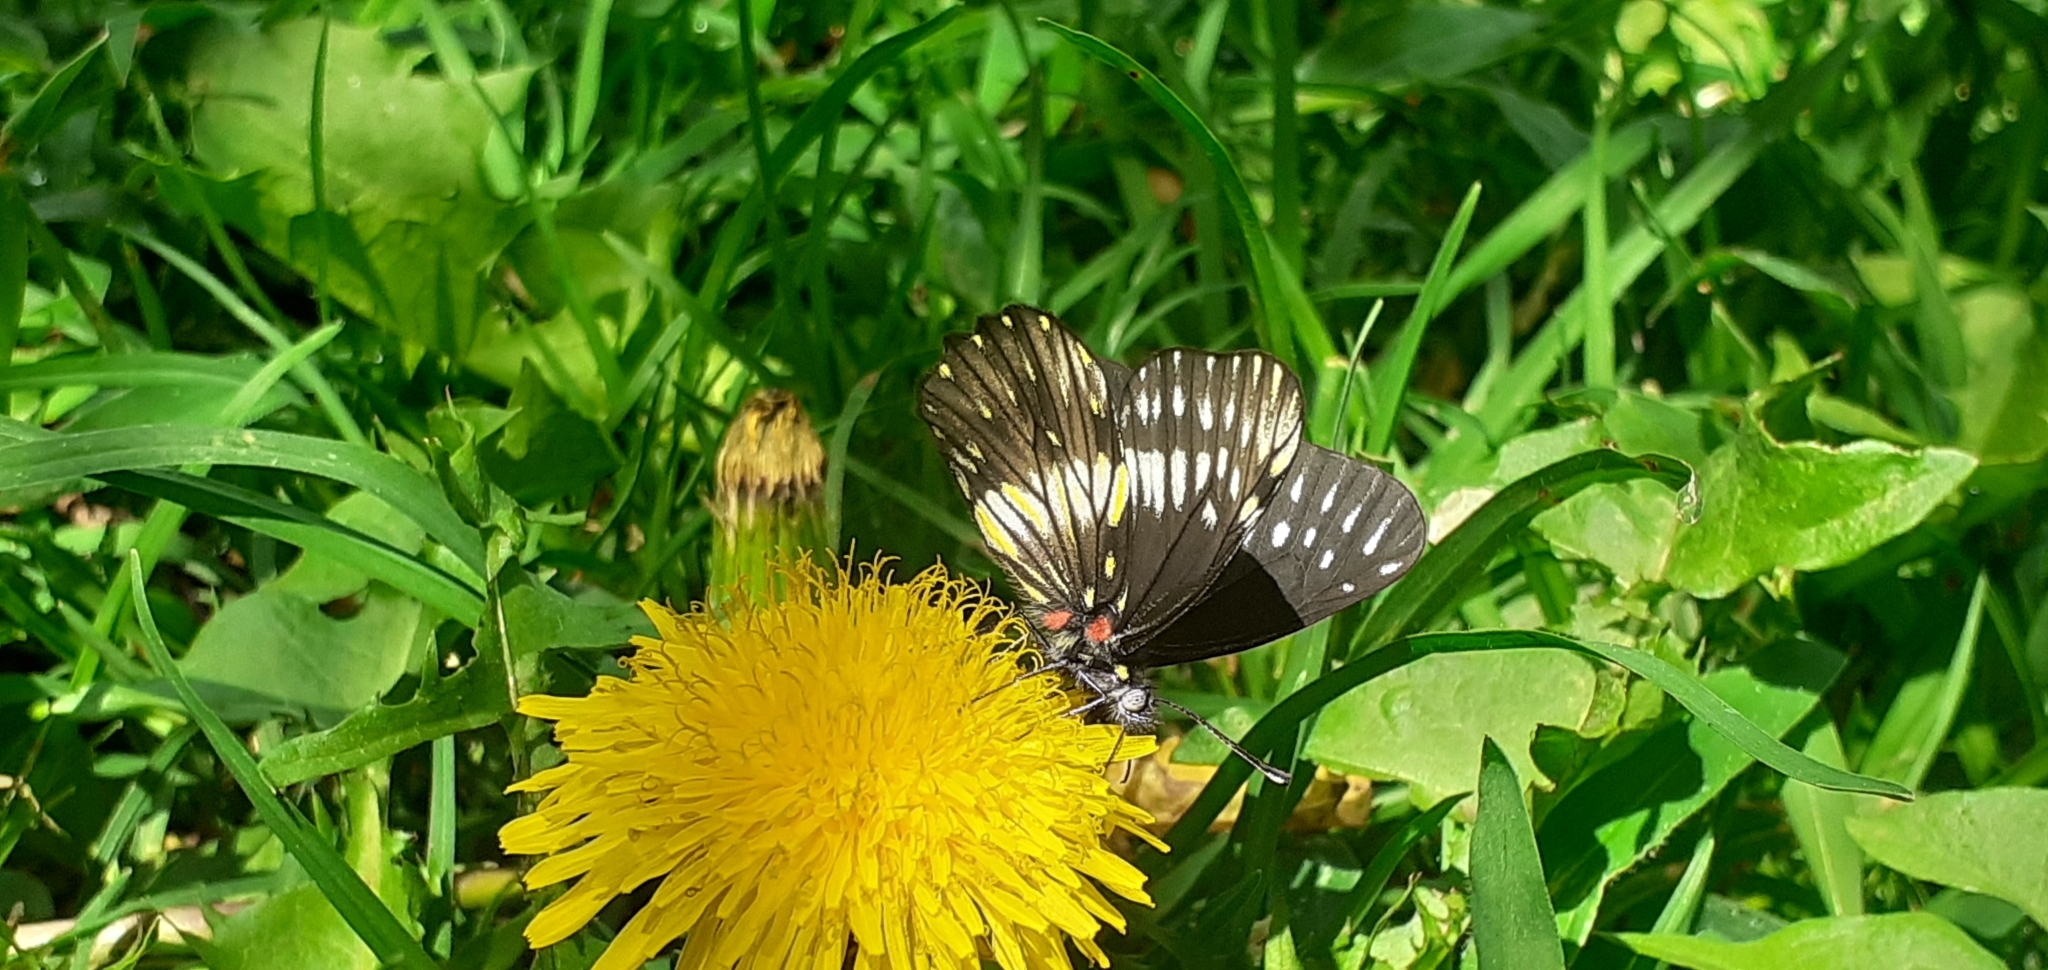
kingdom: Animalia
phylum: Arthropoda
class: Insecta
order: Lepidoptera
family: Pieridae
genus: Archonias
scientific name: Archonias flisa
